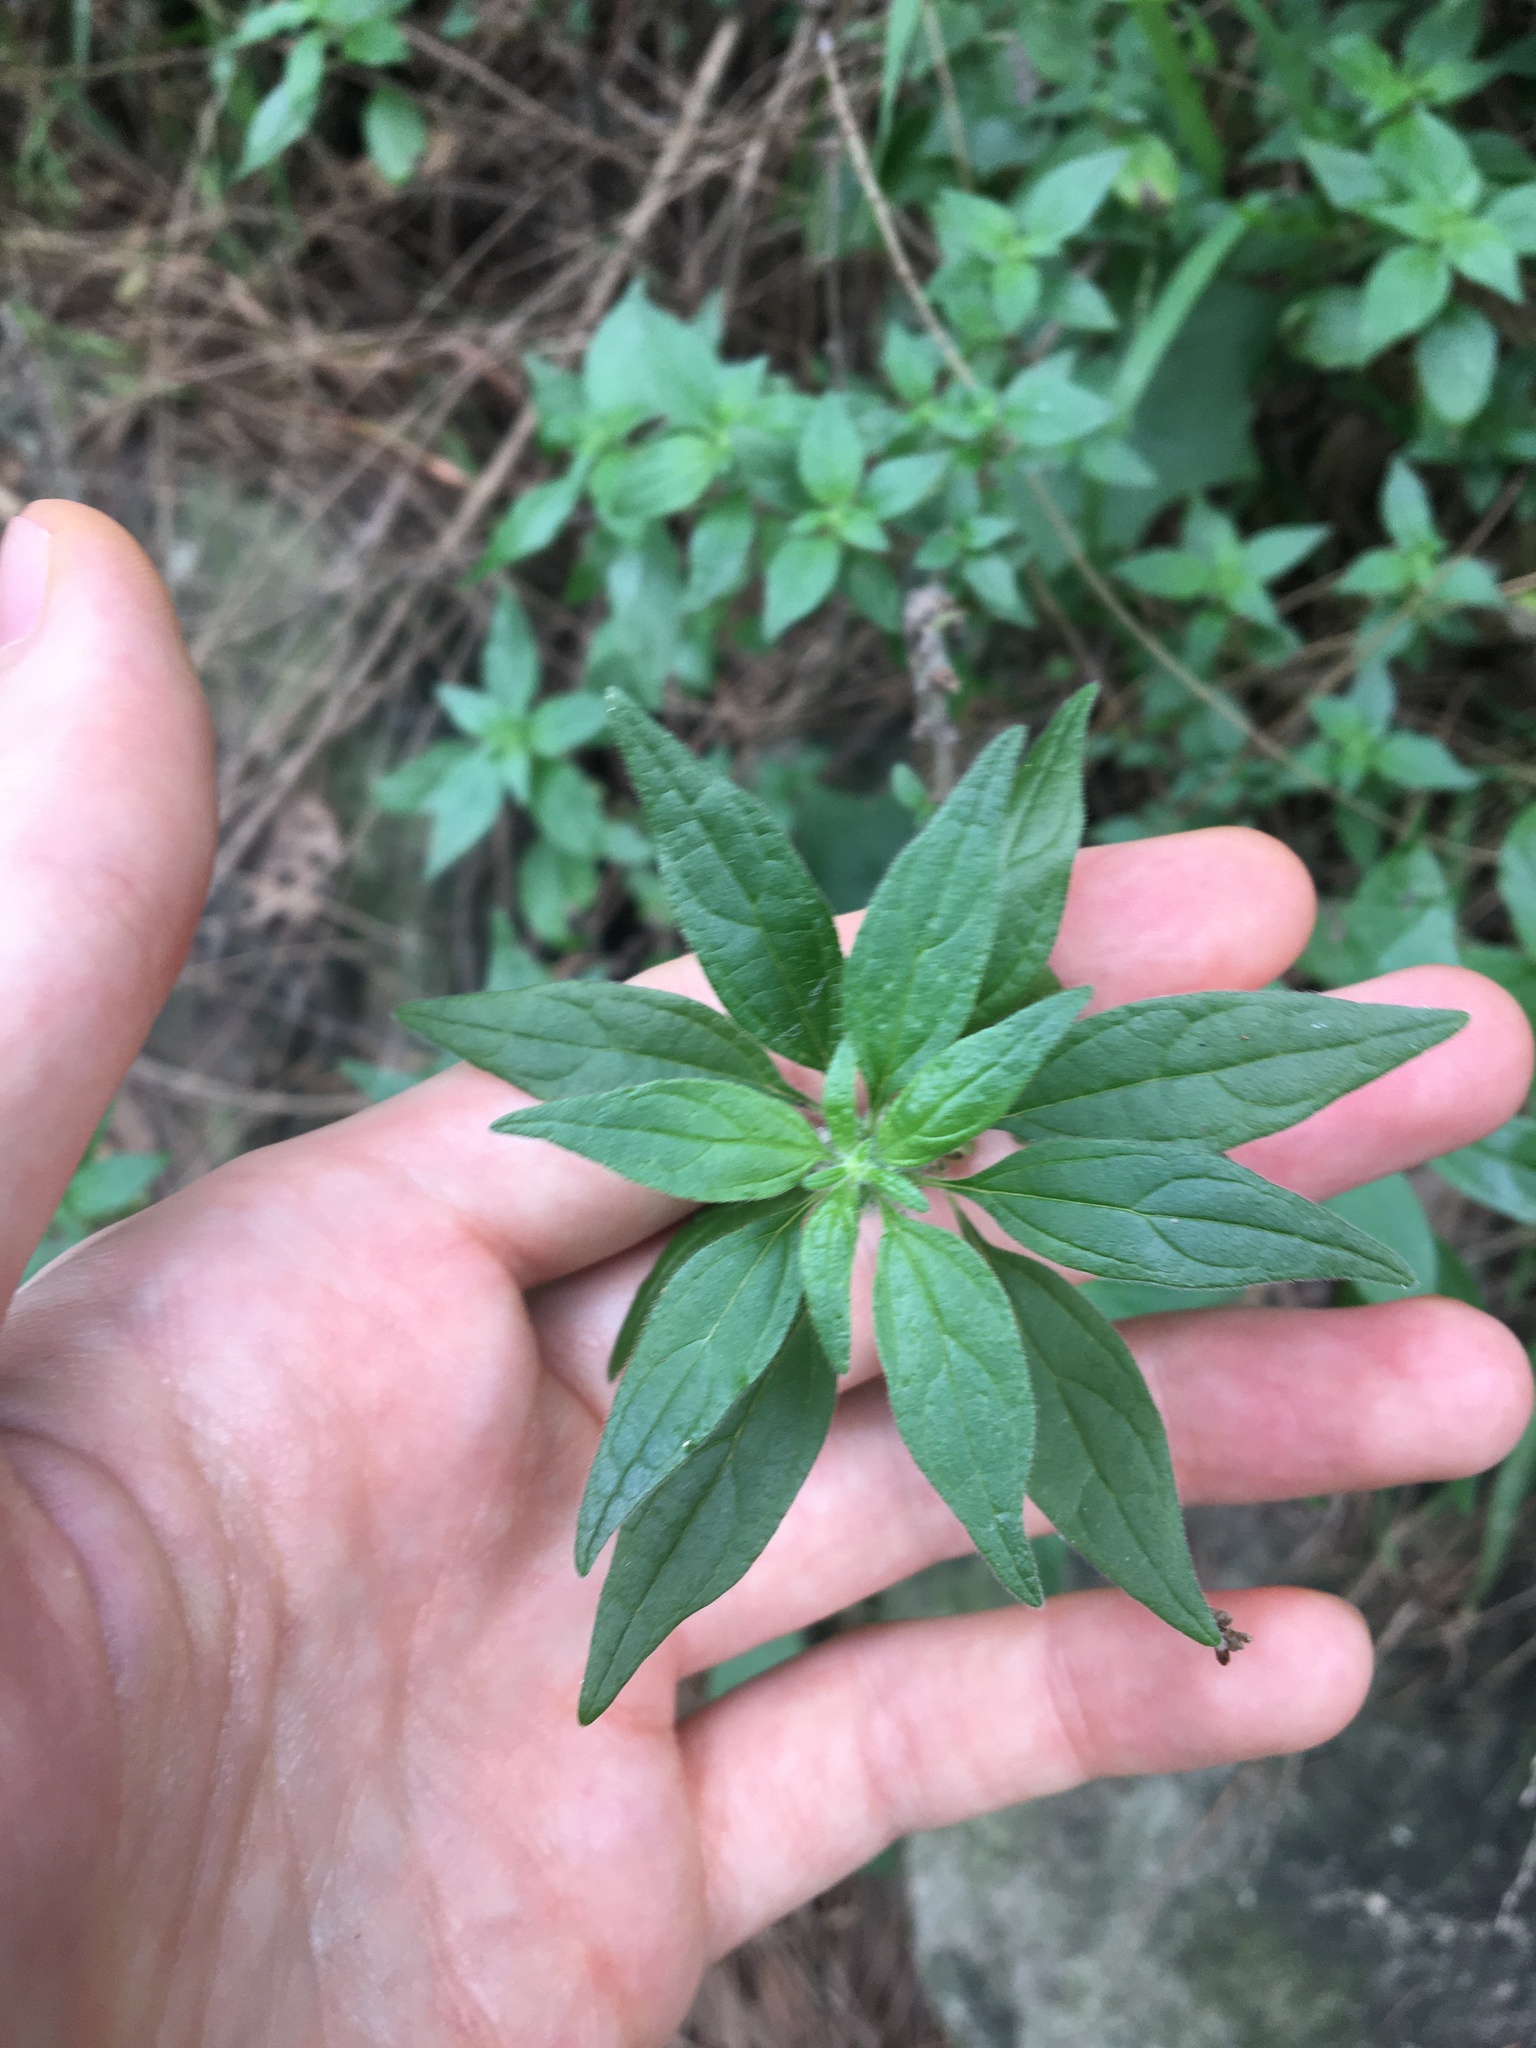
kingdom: Plantae
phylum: Tracheophyta
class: Magnoliopsida
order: Rosales
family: Urticaceae
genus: Parietaria
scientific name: Parietaria judaica
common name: Pellitory-of-the-wall
